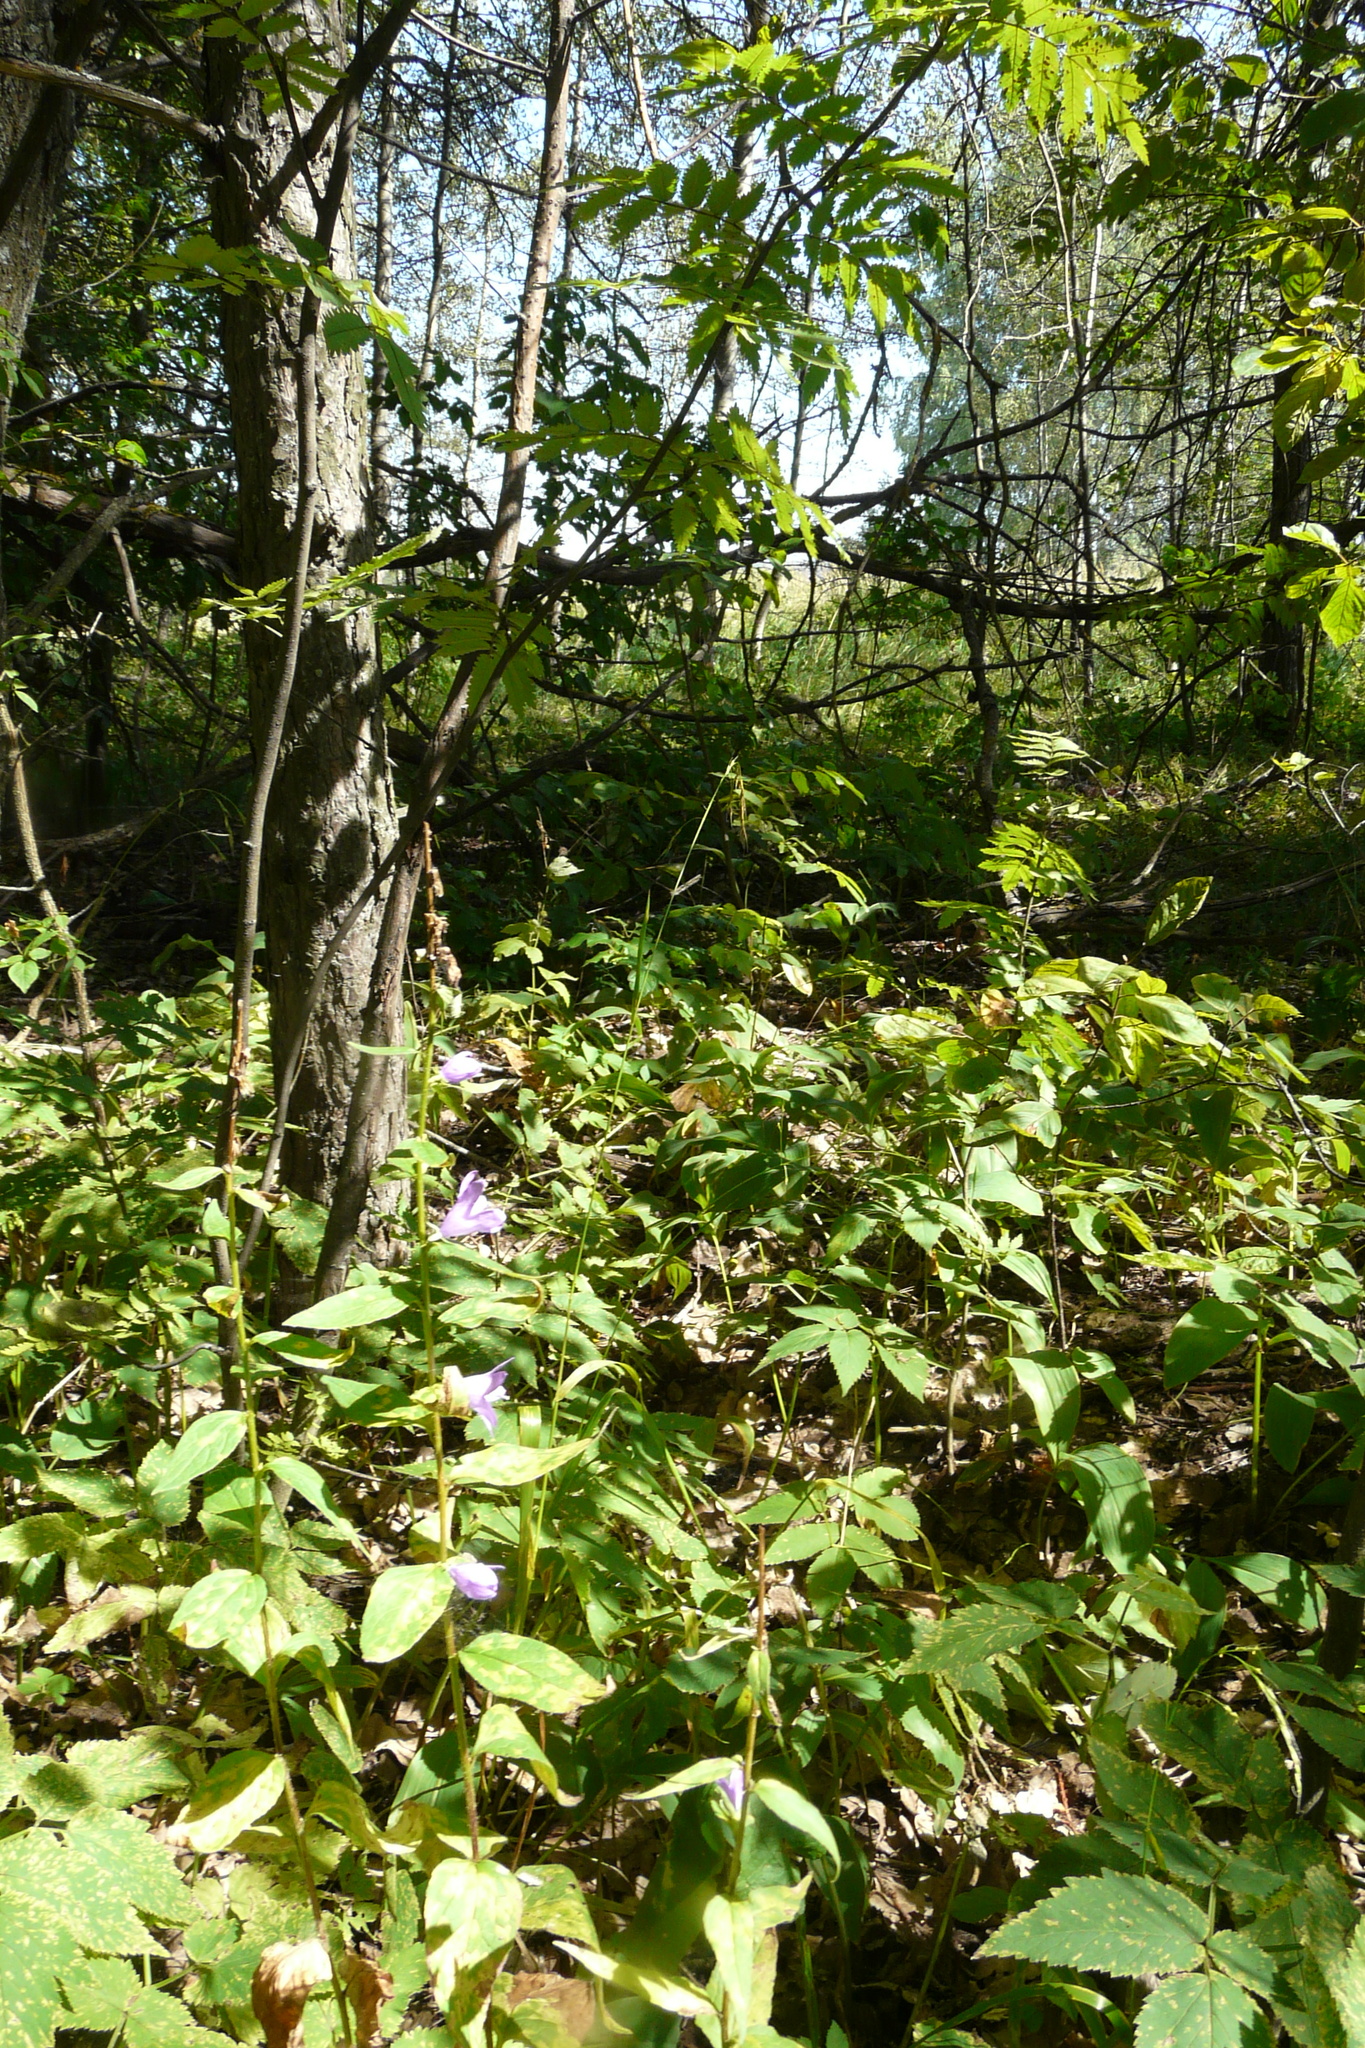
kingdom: Plantae
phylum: Tracheophyta
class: Magnoliopsida
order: Asterales
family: Campanulaceae
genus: Campanula
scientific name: Campanula rapunculoides
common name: Creeping bellflower
